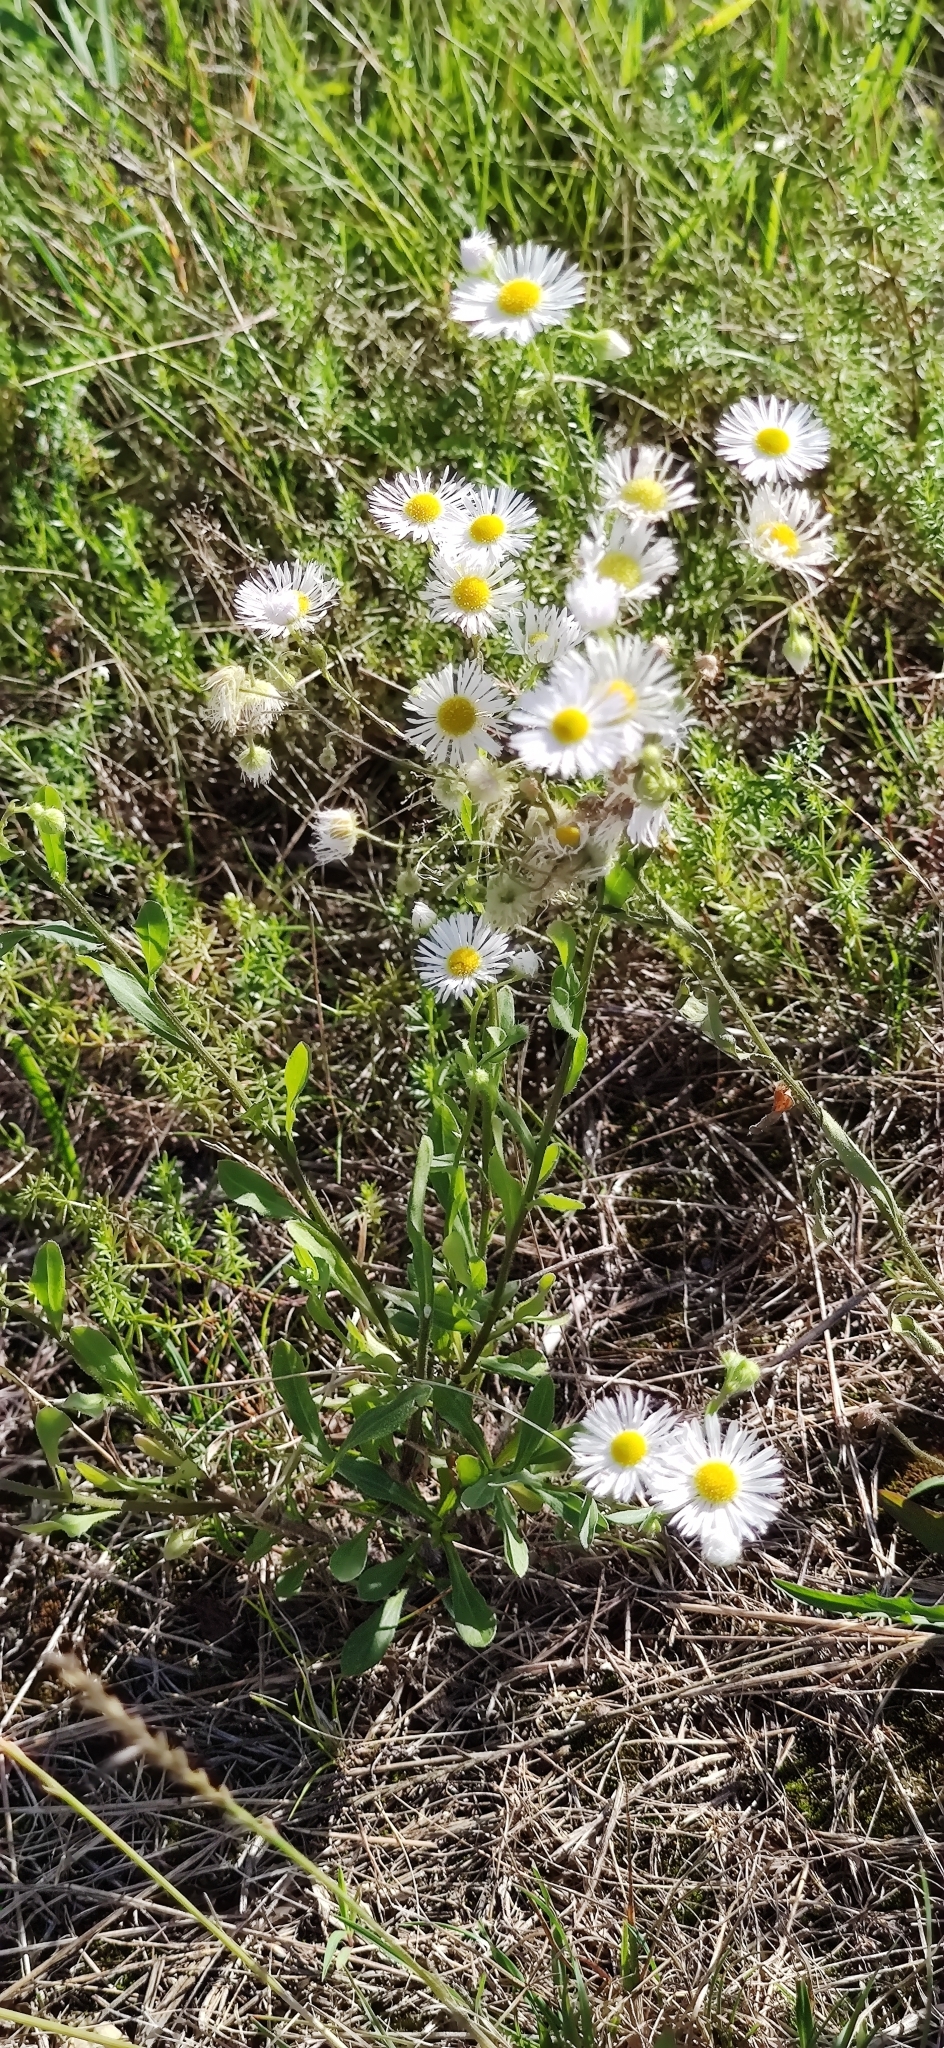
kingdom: Plantae
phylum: Tracheophyta
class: Magnoliopsida
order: Asterales
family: Asteraceae
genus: Erigeron
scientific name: Erigeron annuus
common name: Tall fleabane
